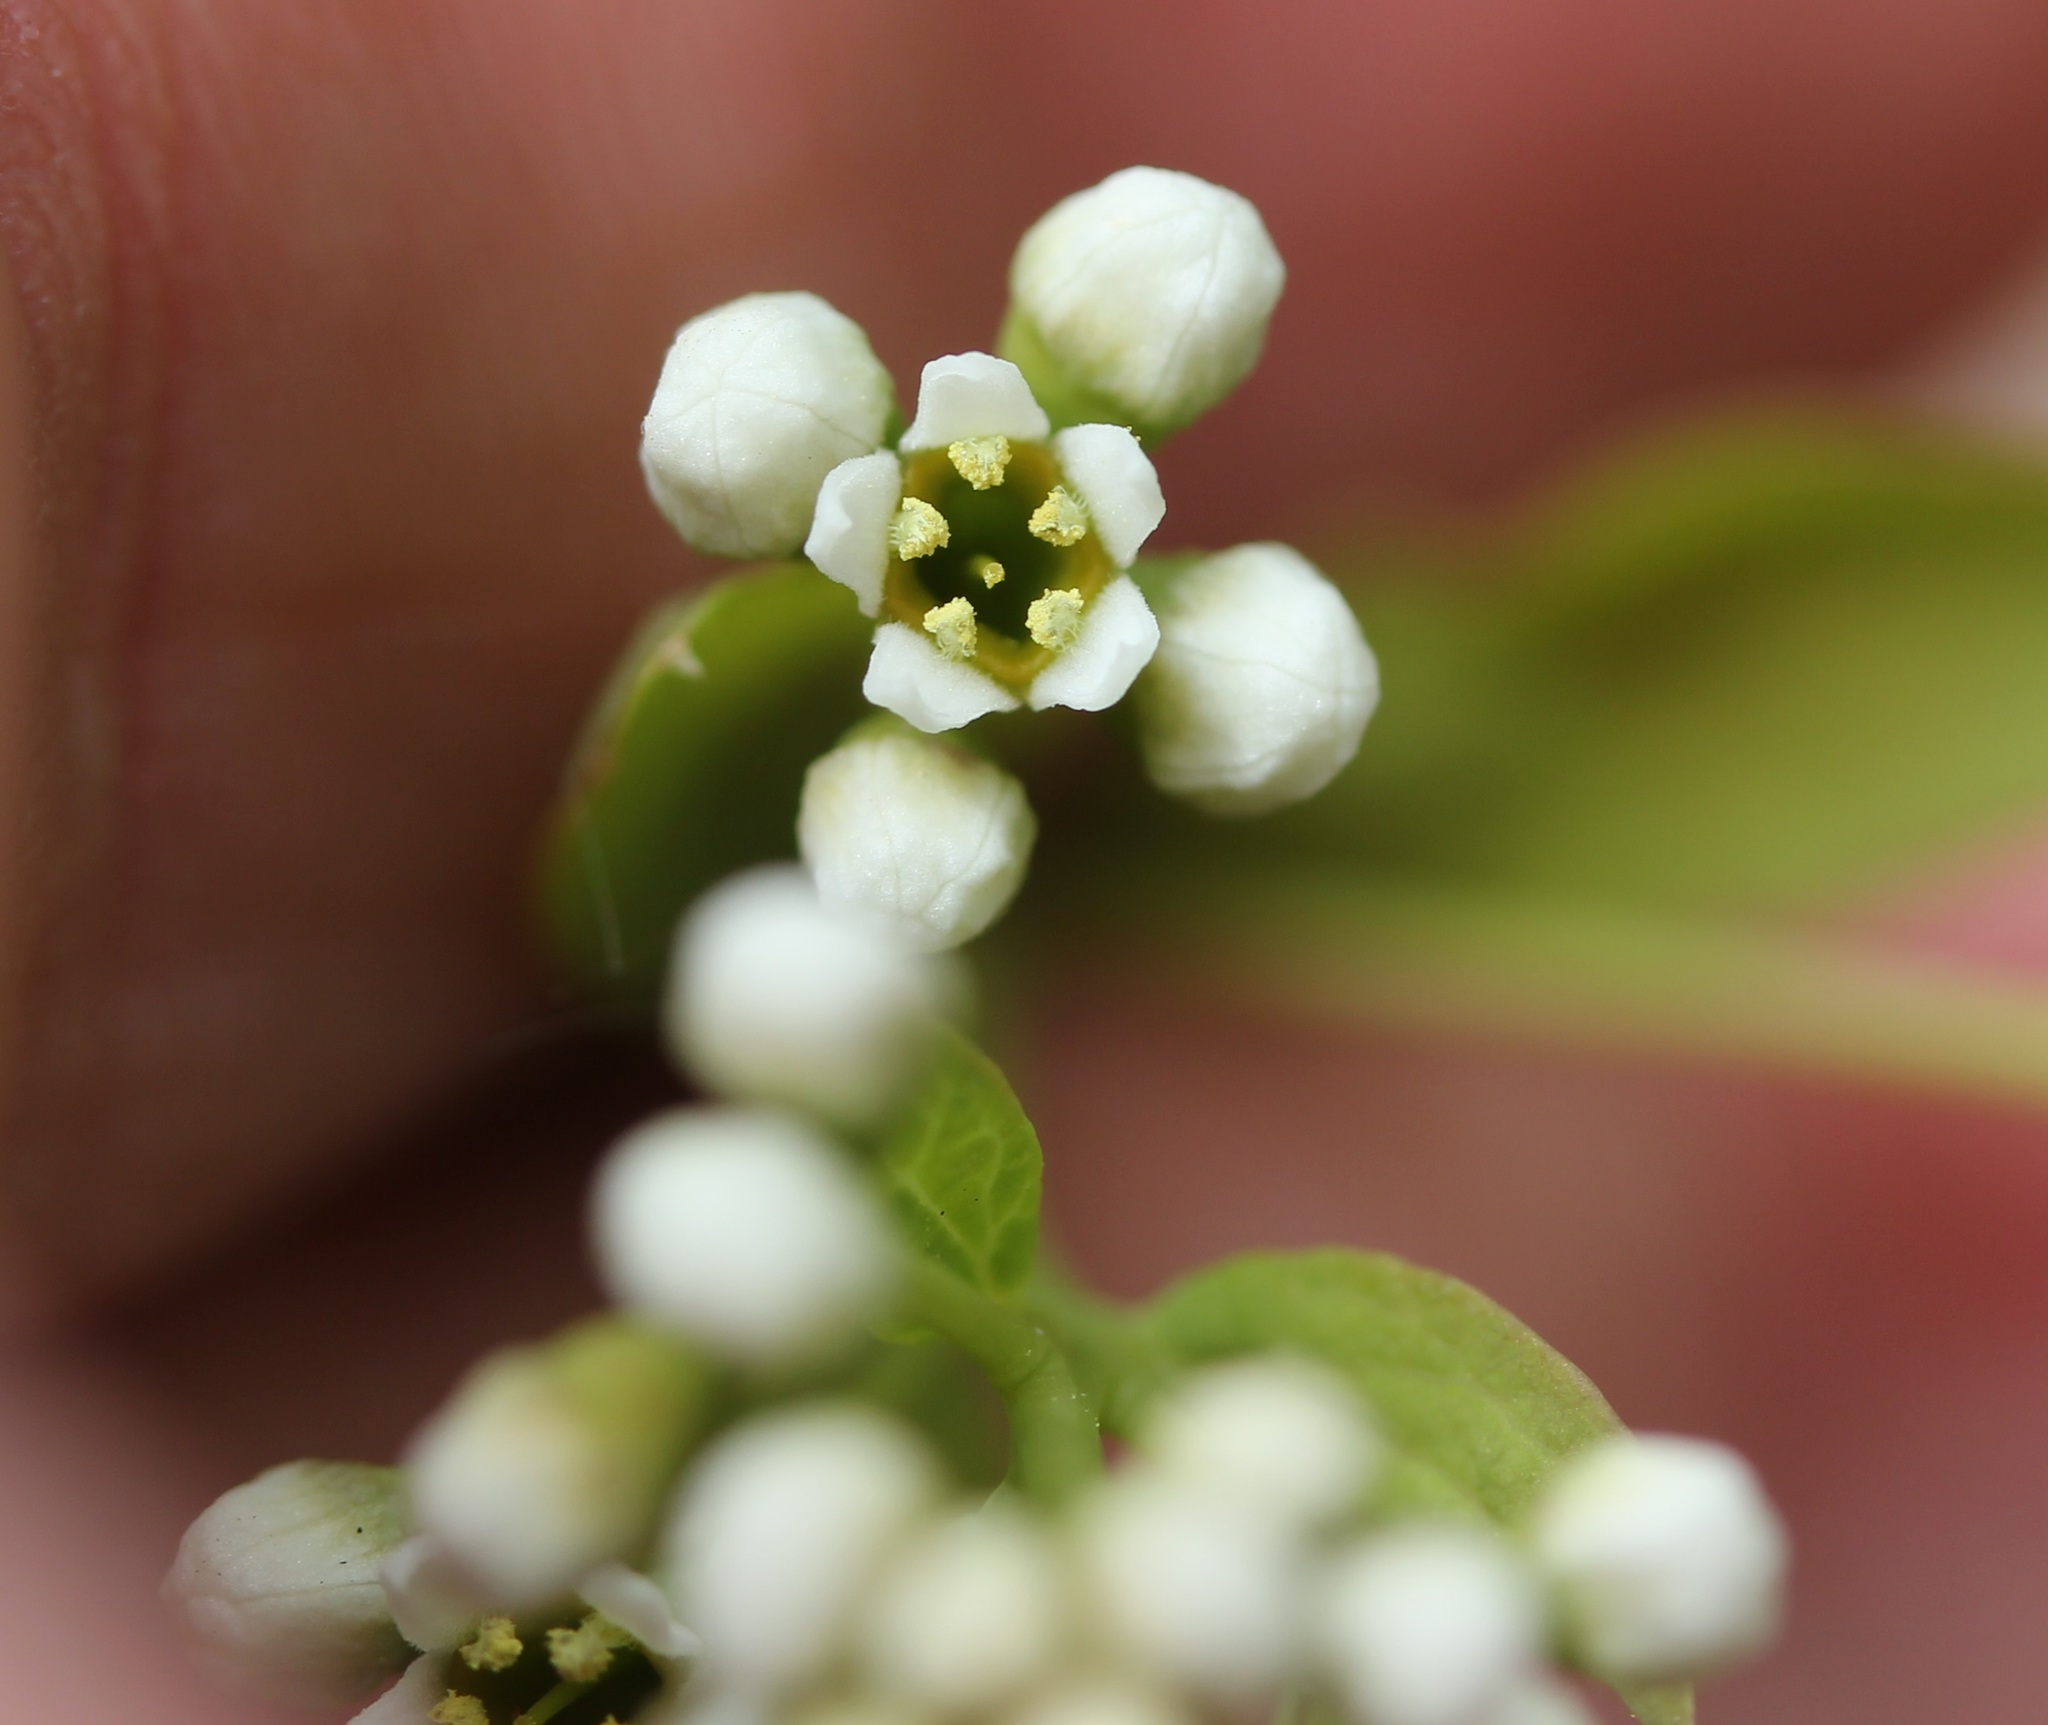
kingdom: Plantae
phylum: Tracheophyta
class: Magnoliopsida
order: Santalales
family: Comandraceae
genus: Comandra
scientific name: Comandra umbellata
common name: Bastard toadflax
